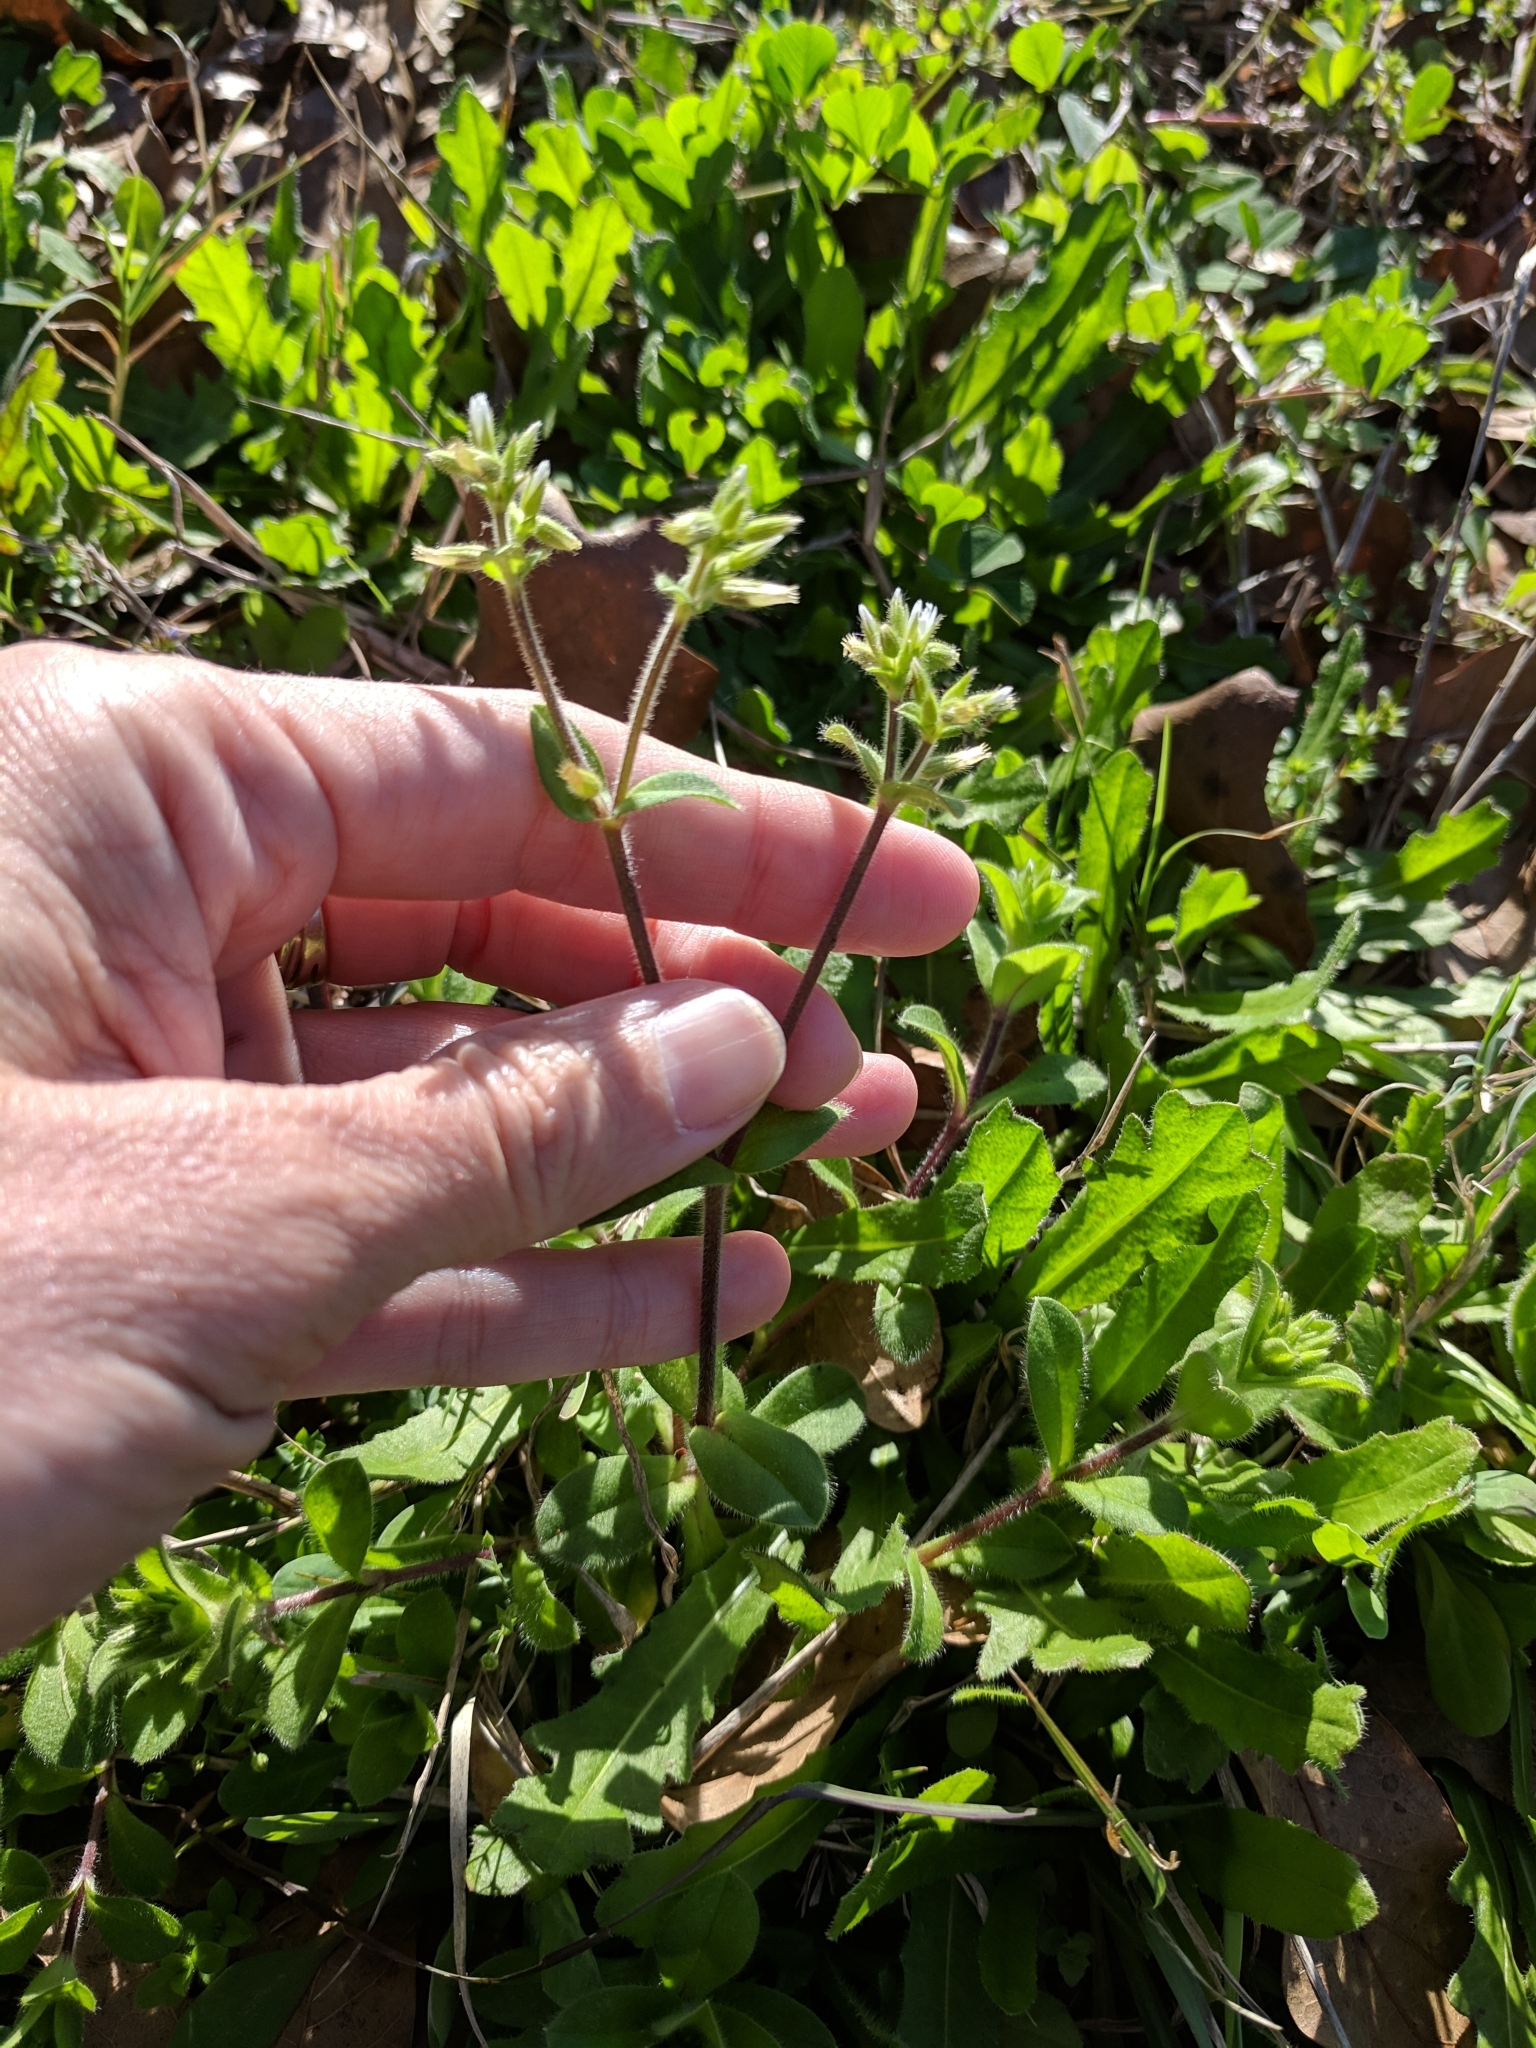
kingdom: Plantae
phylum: Tracheophyta
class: Magnoliopsida
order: Caryophyllales
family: Caryophyllaceae
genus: Cerastium
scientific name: Cerastium glomeratum
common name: Sticky chickweed
